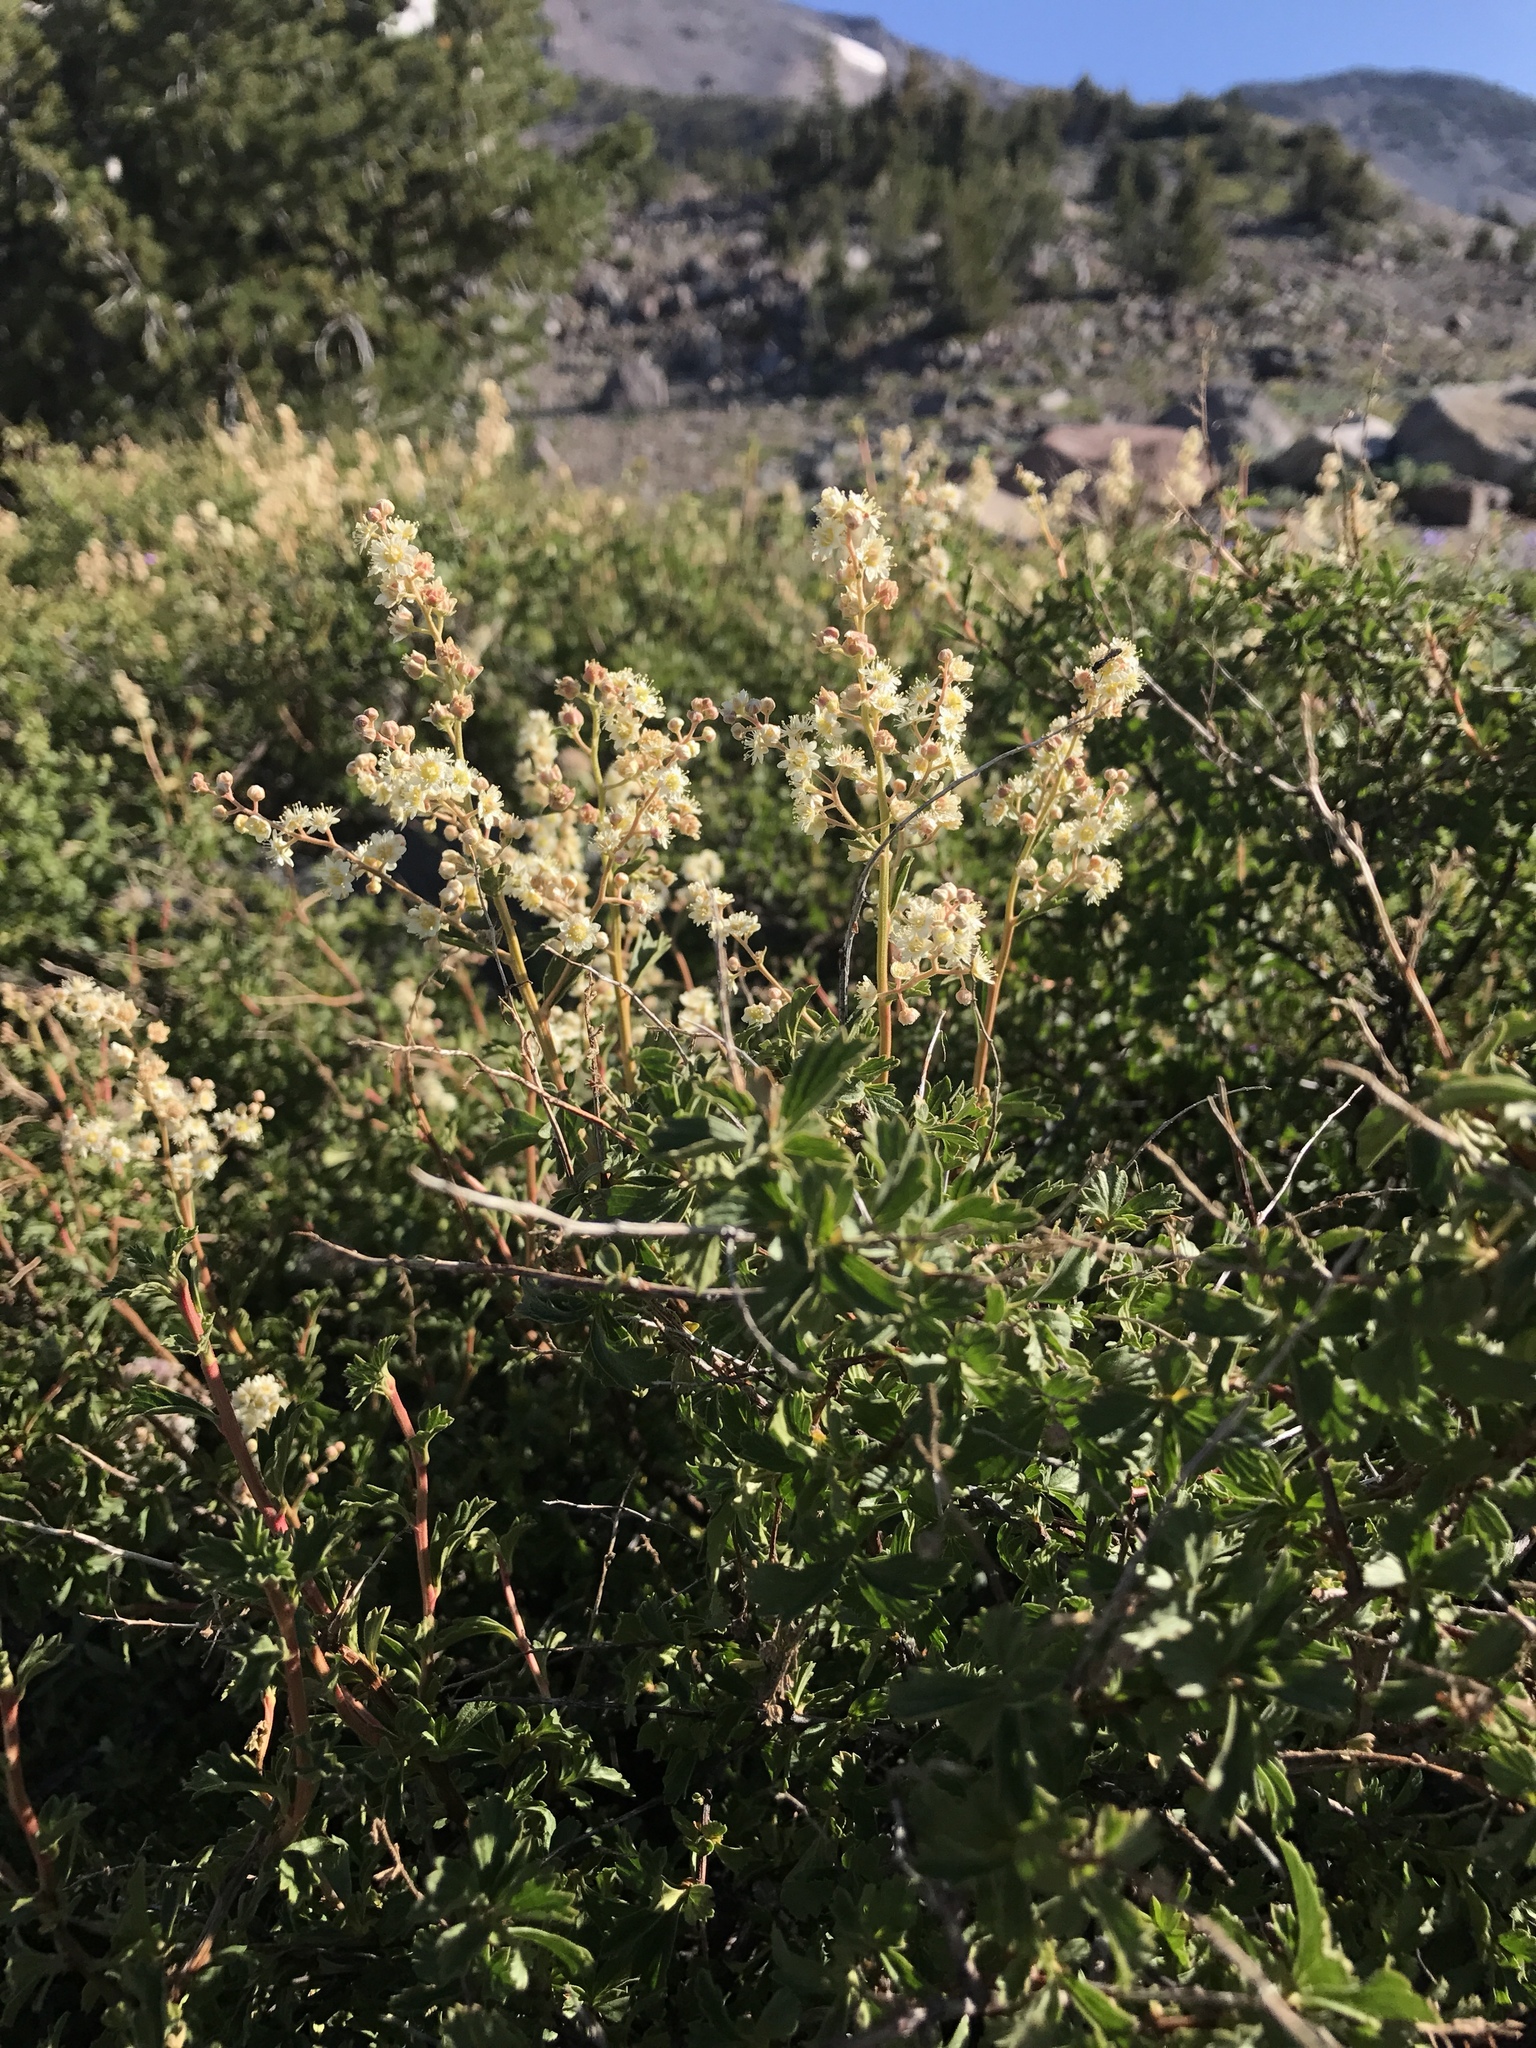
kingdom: Plantae
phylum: Tracheophyta
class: Magnoliopsida
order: Rosales
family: Rosaceae
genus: Holodiscus
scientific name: Holodiscus discolor
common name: Oceanspray
